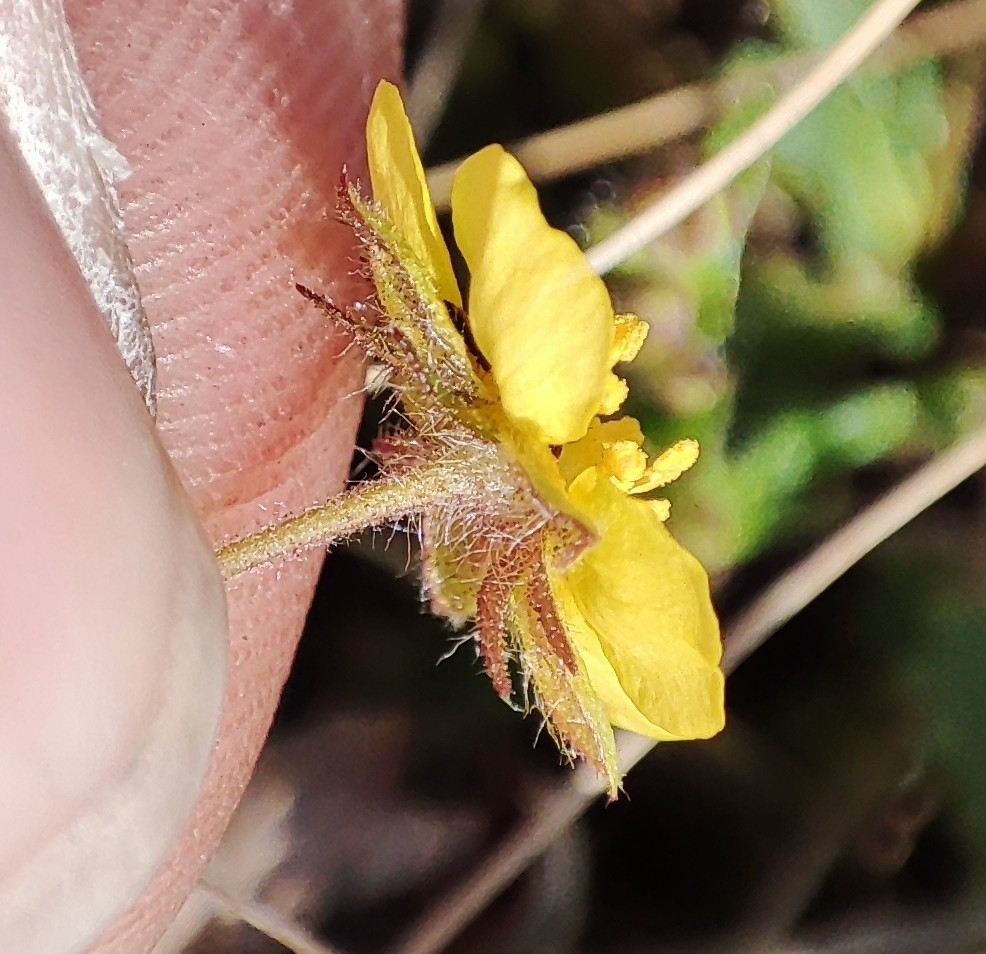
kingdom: Plantae
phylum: Tracheophyta
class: Magnoliopsida
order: Rosales
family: Rosaceae
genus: Potentilla
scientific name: Potentilla humifusa
